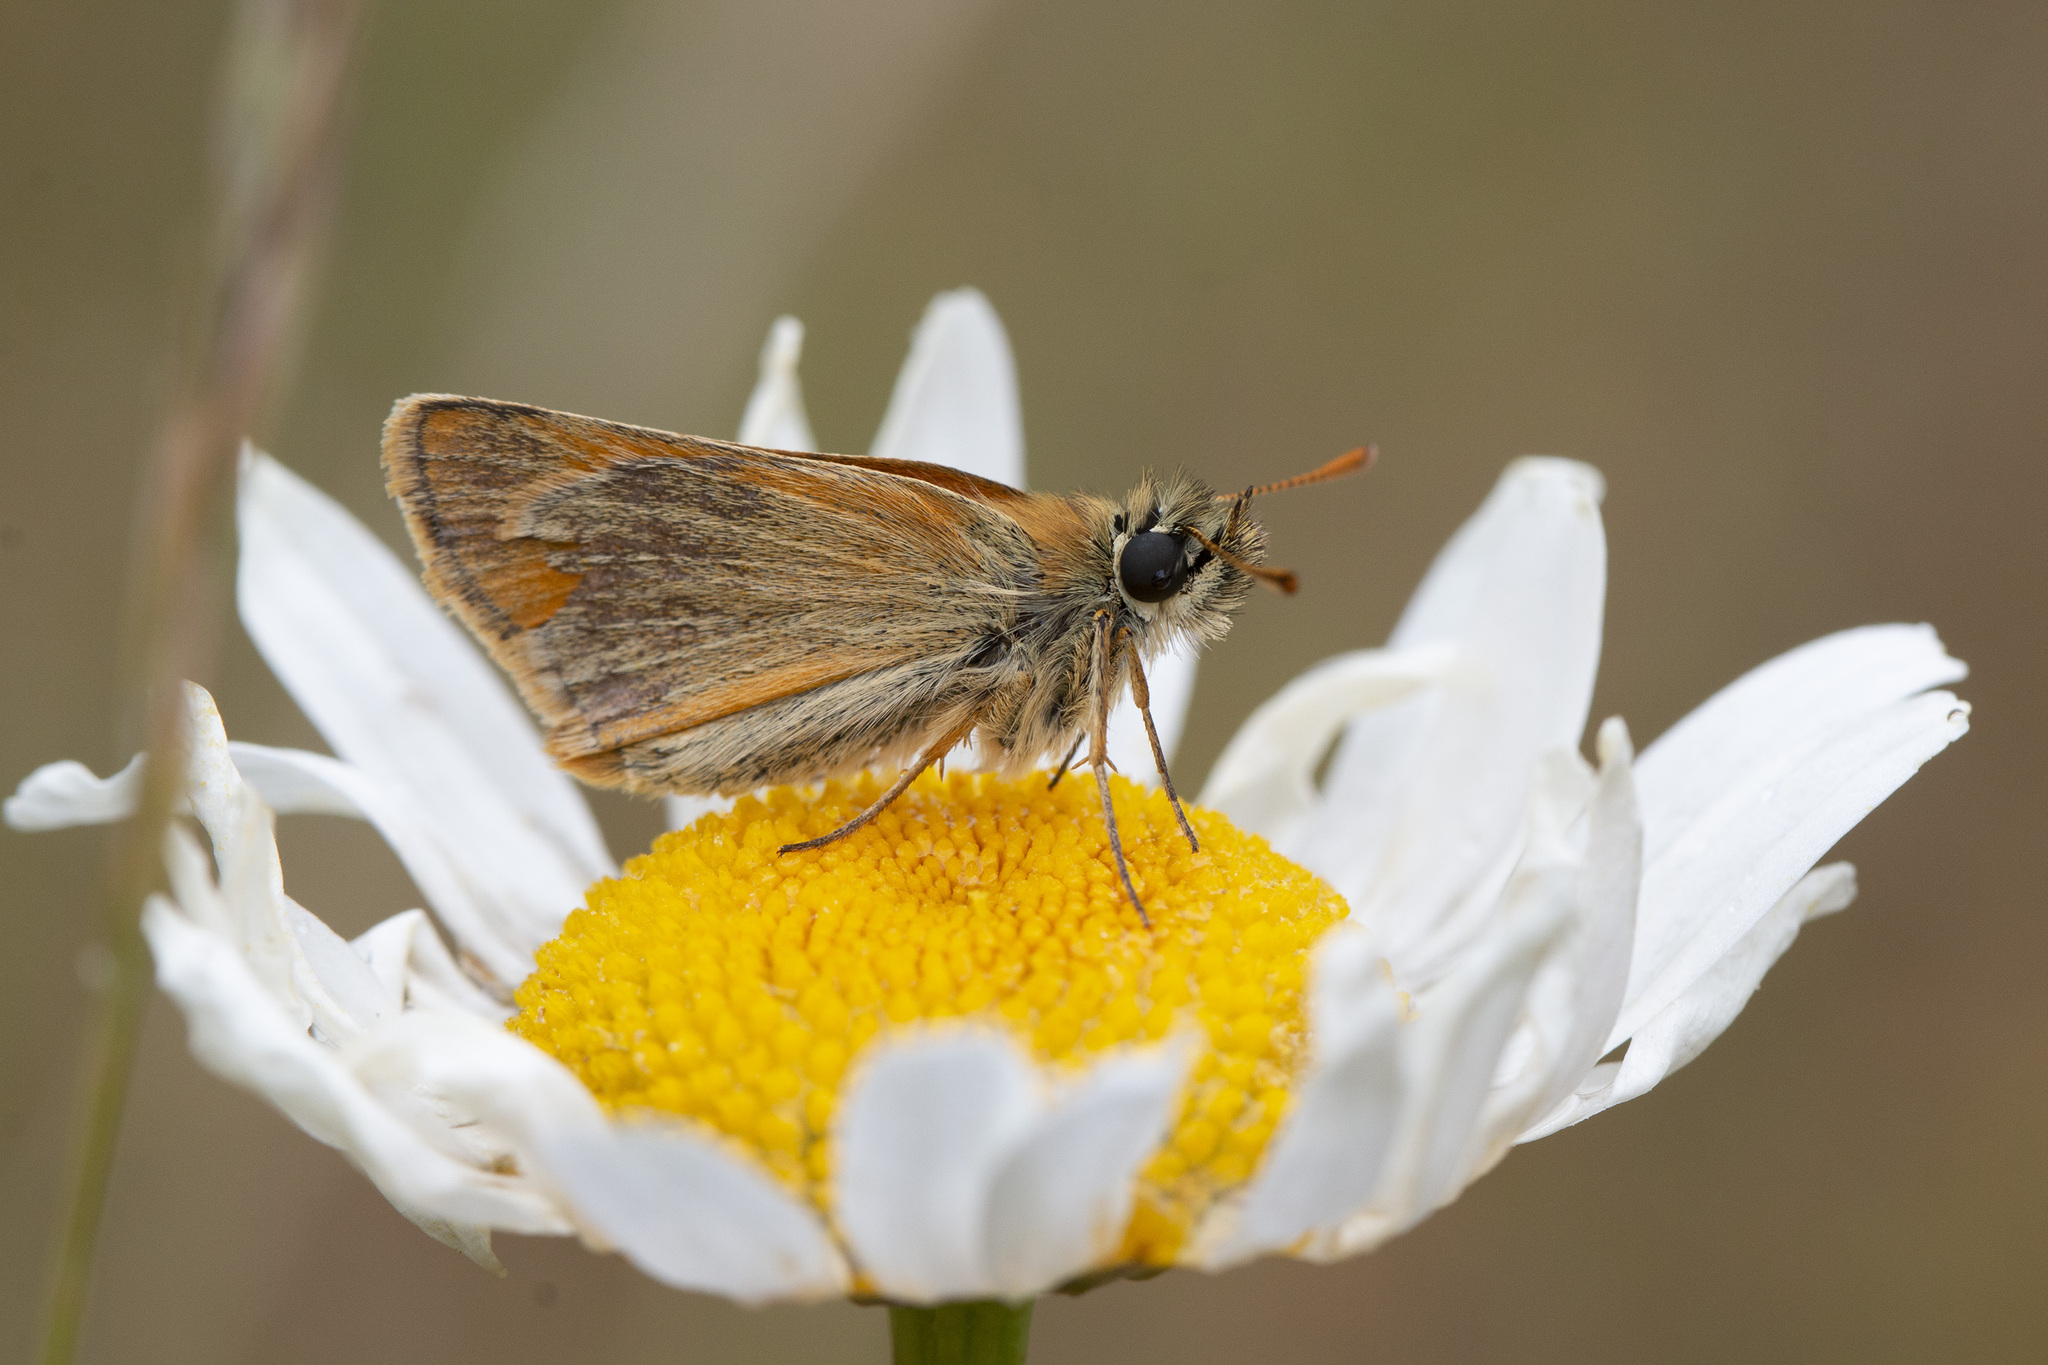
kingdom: Animalia
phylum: Arthropoda
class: Insecta
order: Lepidoptera
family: Hesperiidae
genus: Thymelicus
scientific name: Thymelicus sylvestris
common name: Small skipper
